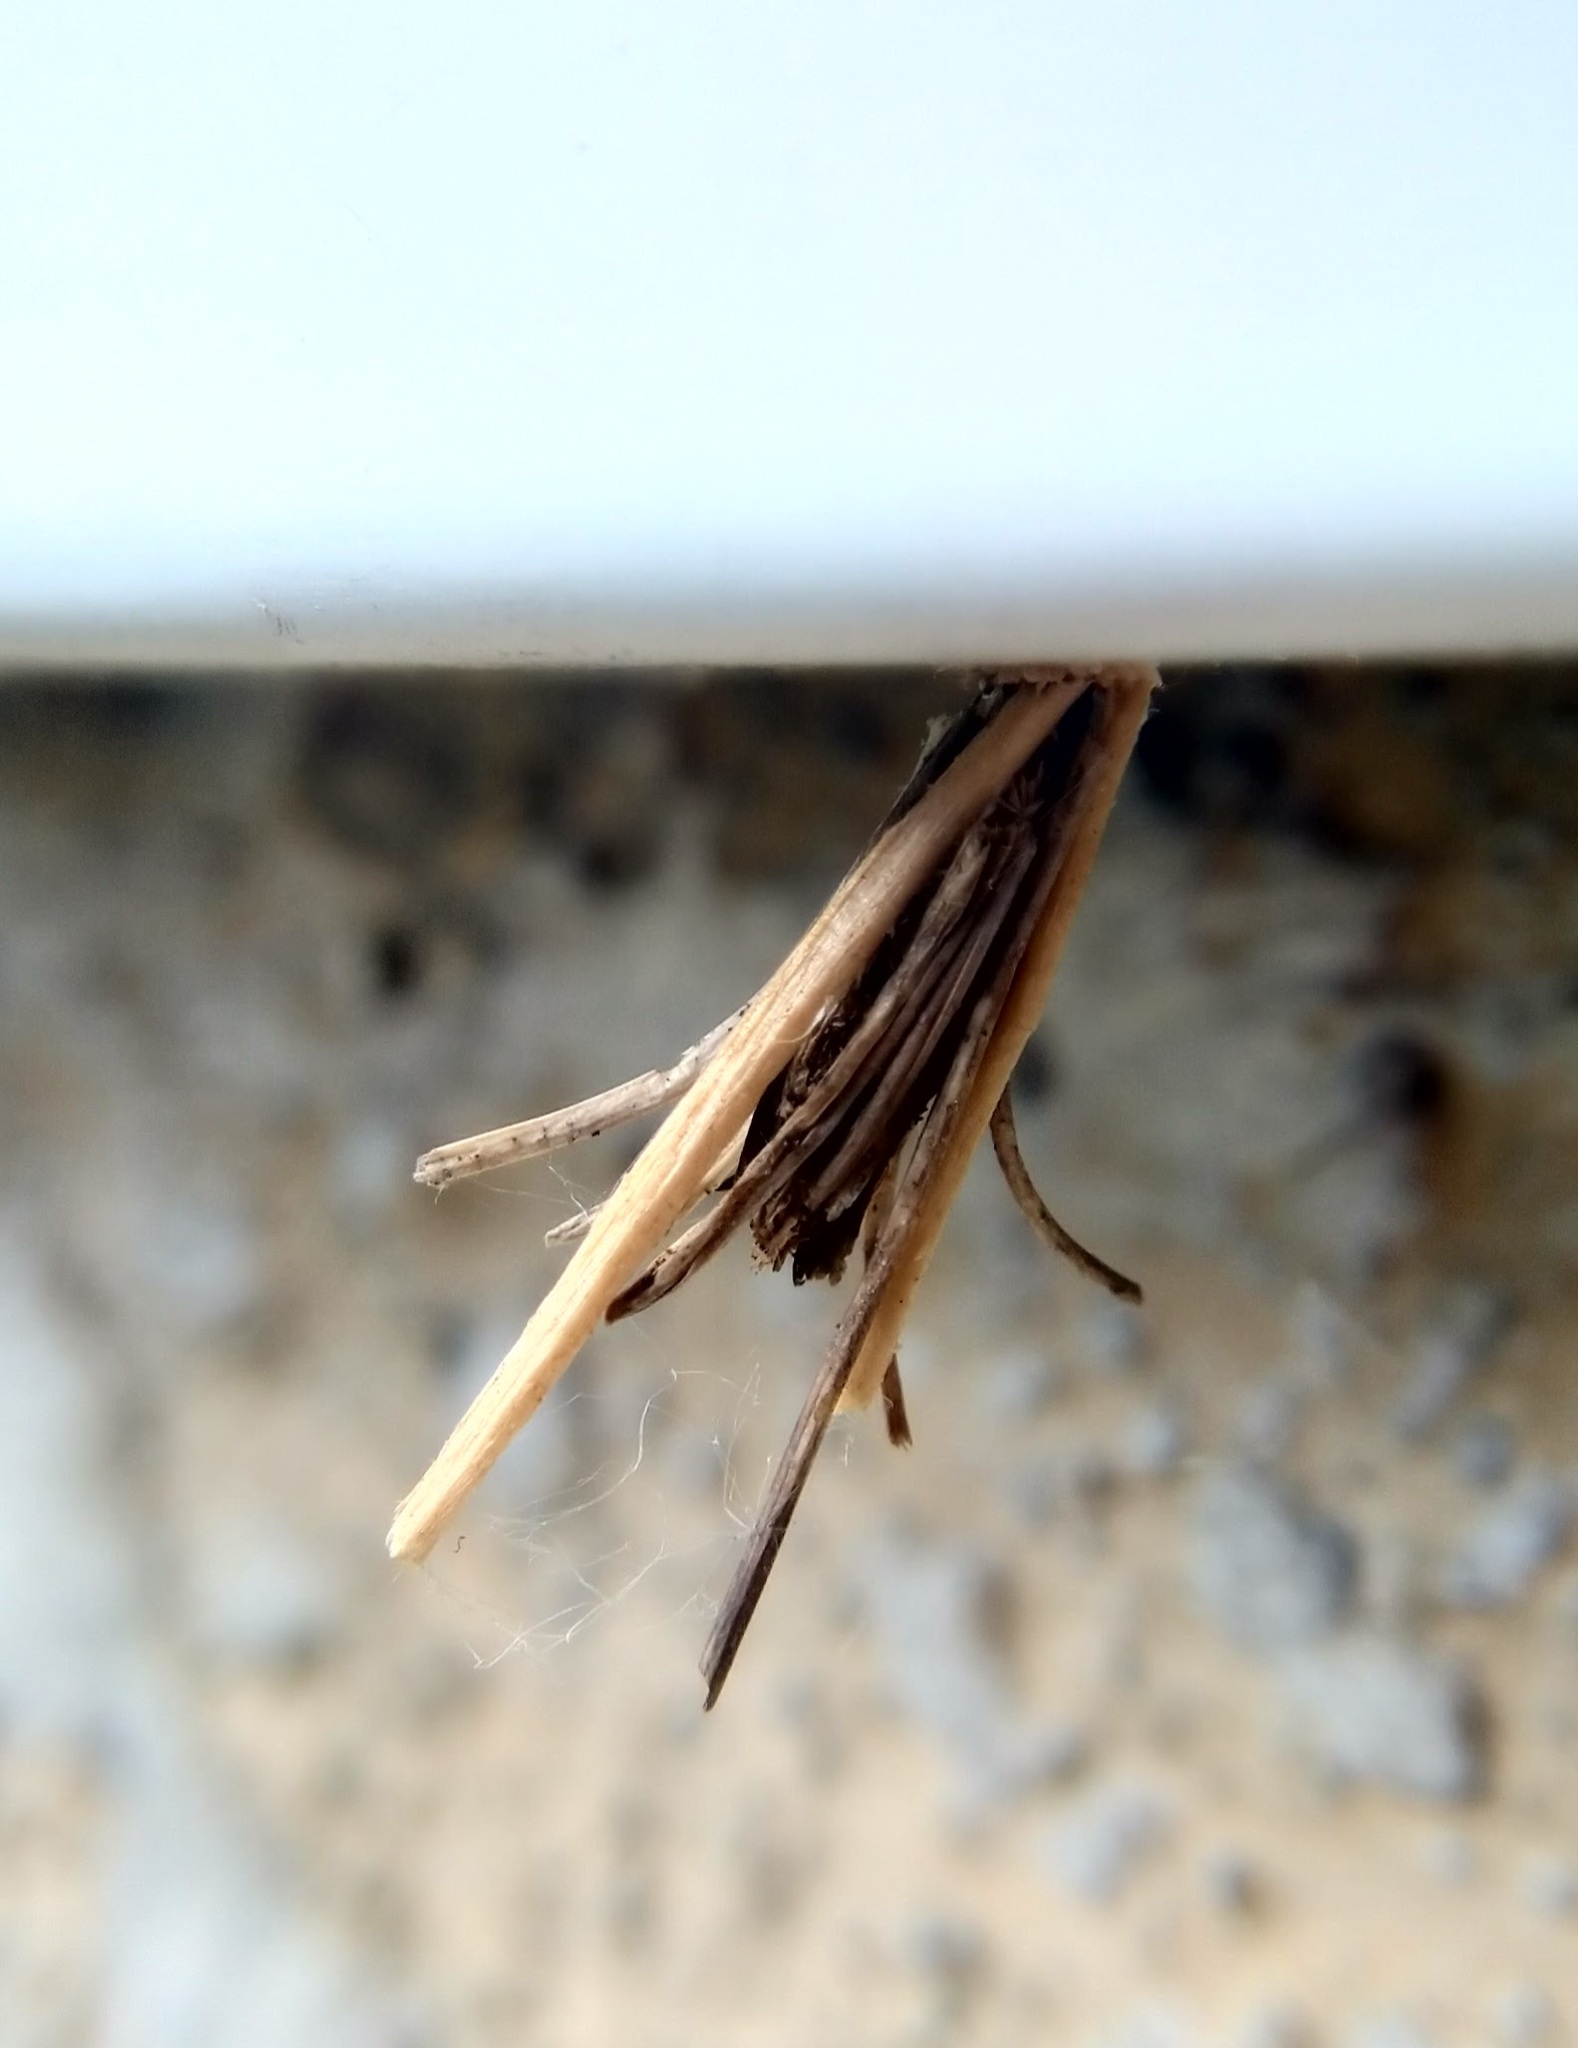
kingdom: Animalia
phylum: Arthropoda
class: Insecta
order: Lepidoptera
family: Psychidae
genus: Psyche
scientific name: Psyche casta
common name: Common sweep
